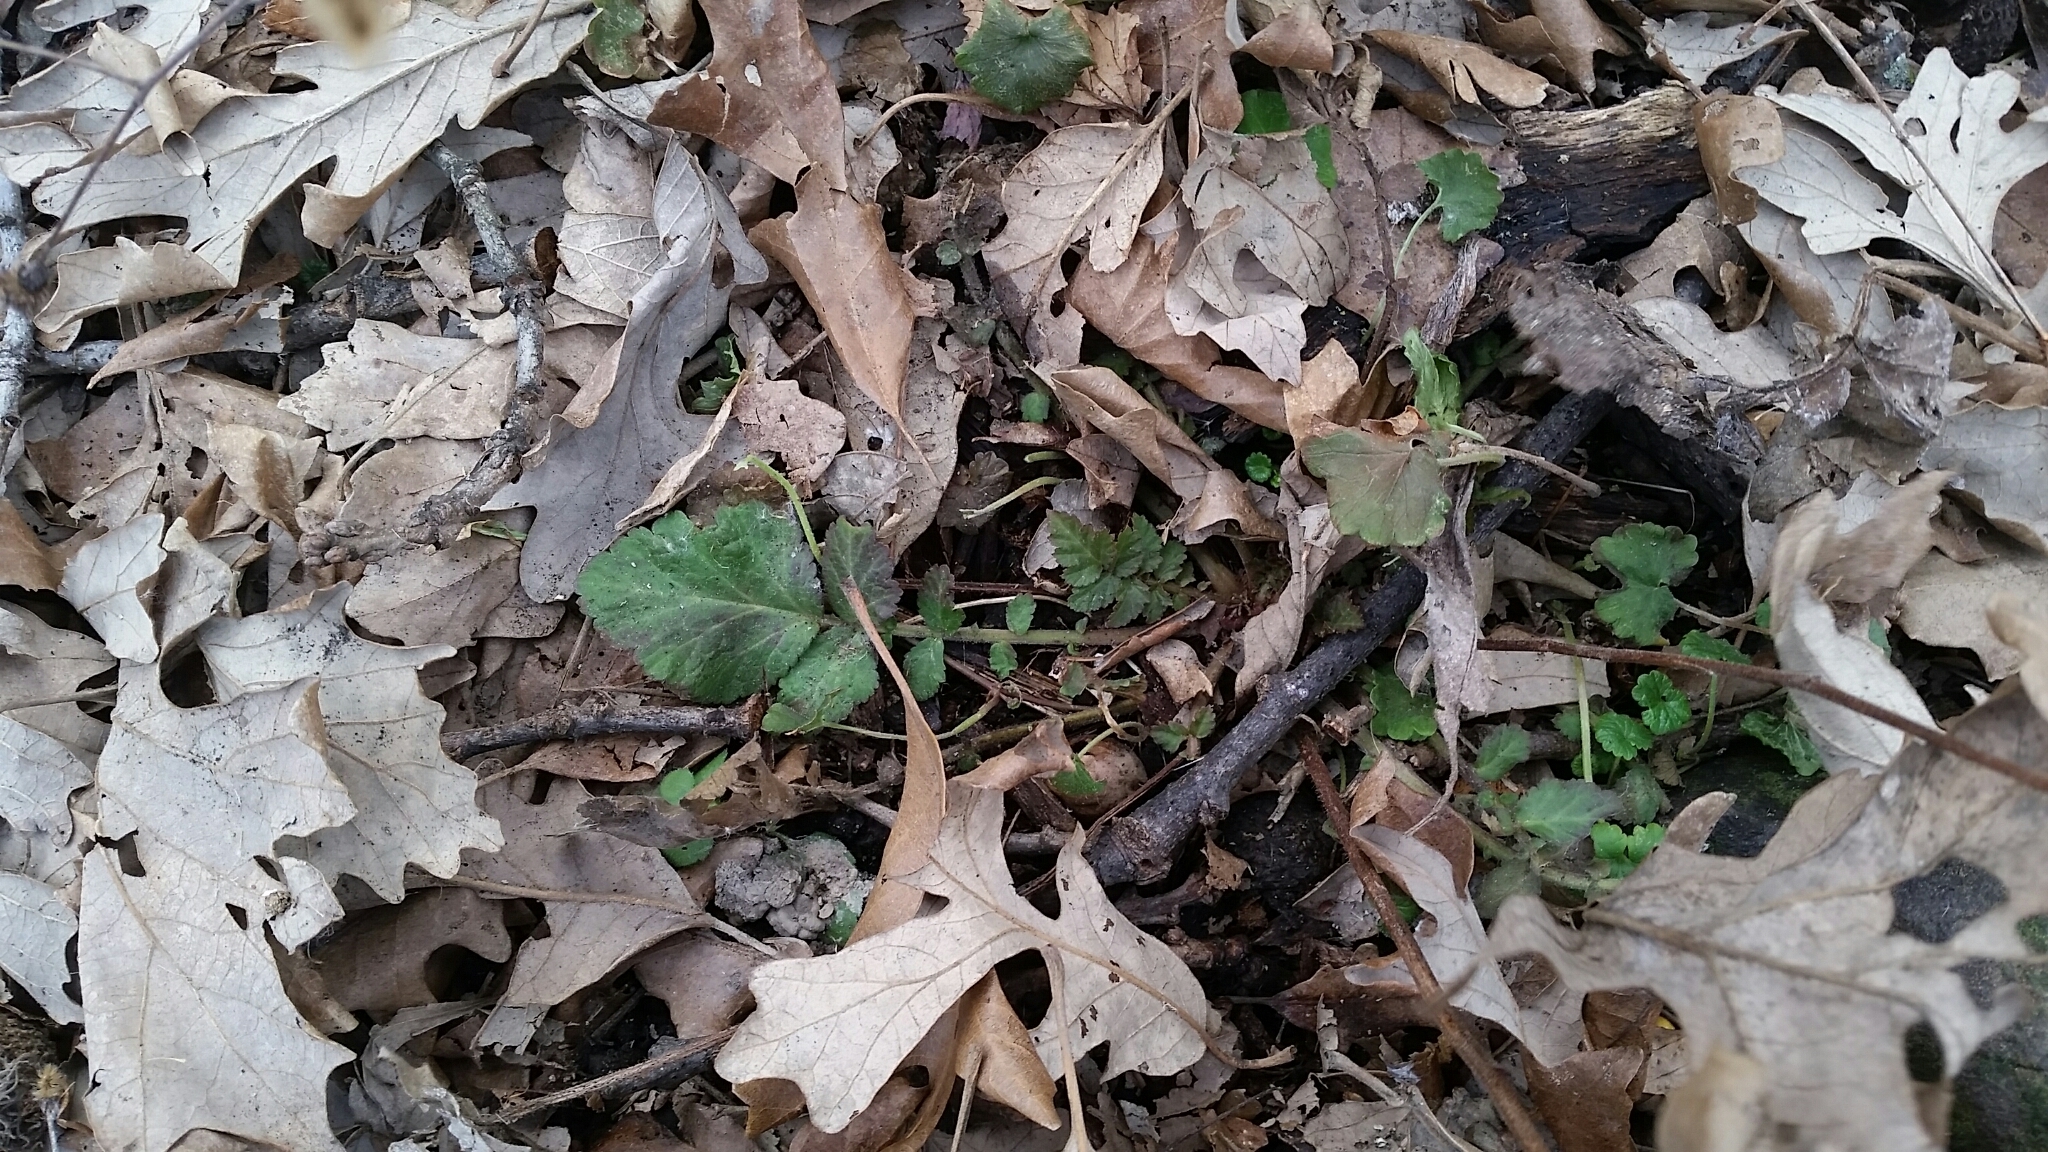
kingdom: Plantae
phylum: Tracheophyta
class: Magnoliopsida
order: Rosales
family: Rosaceae
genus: Geum
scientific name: Geum canadense
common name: White avens
